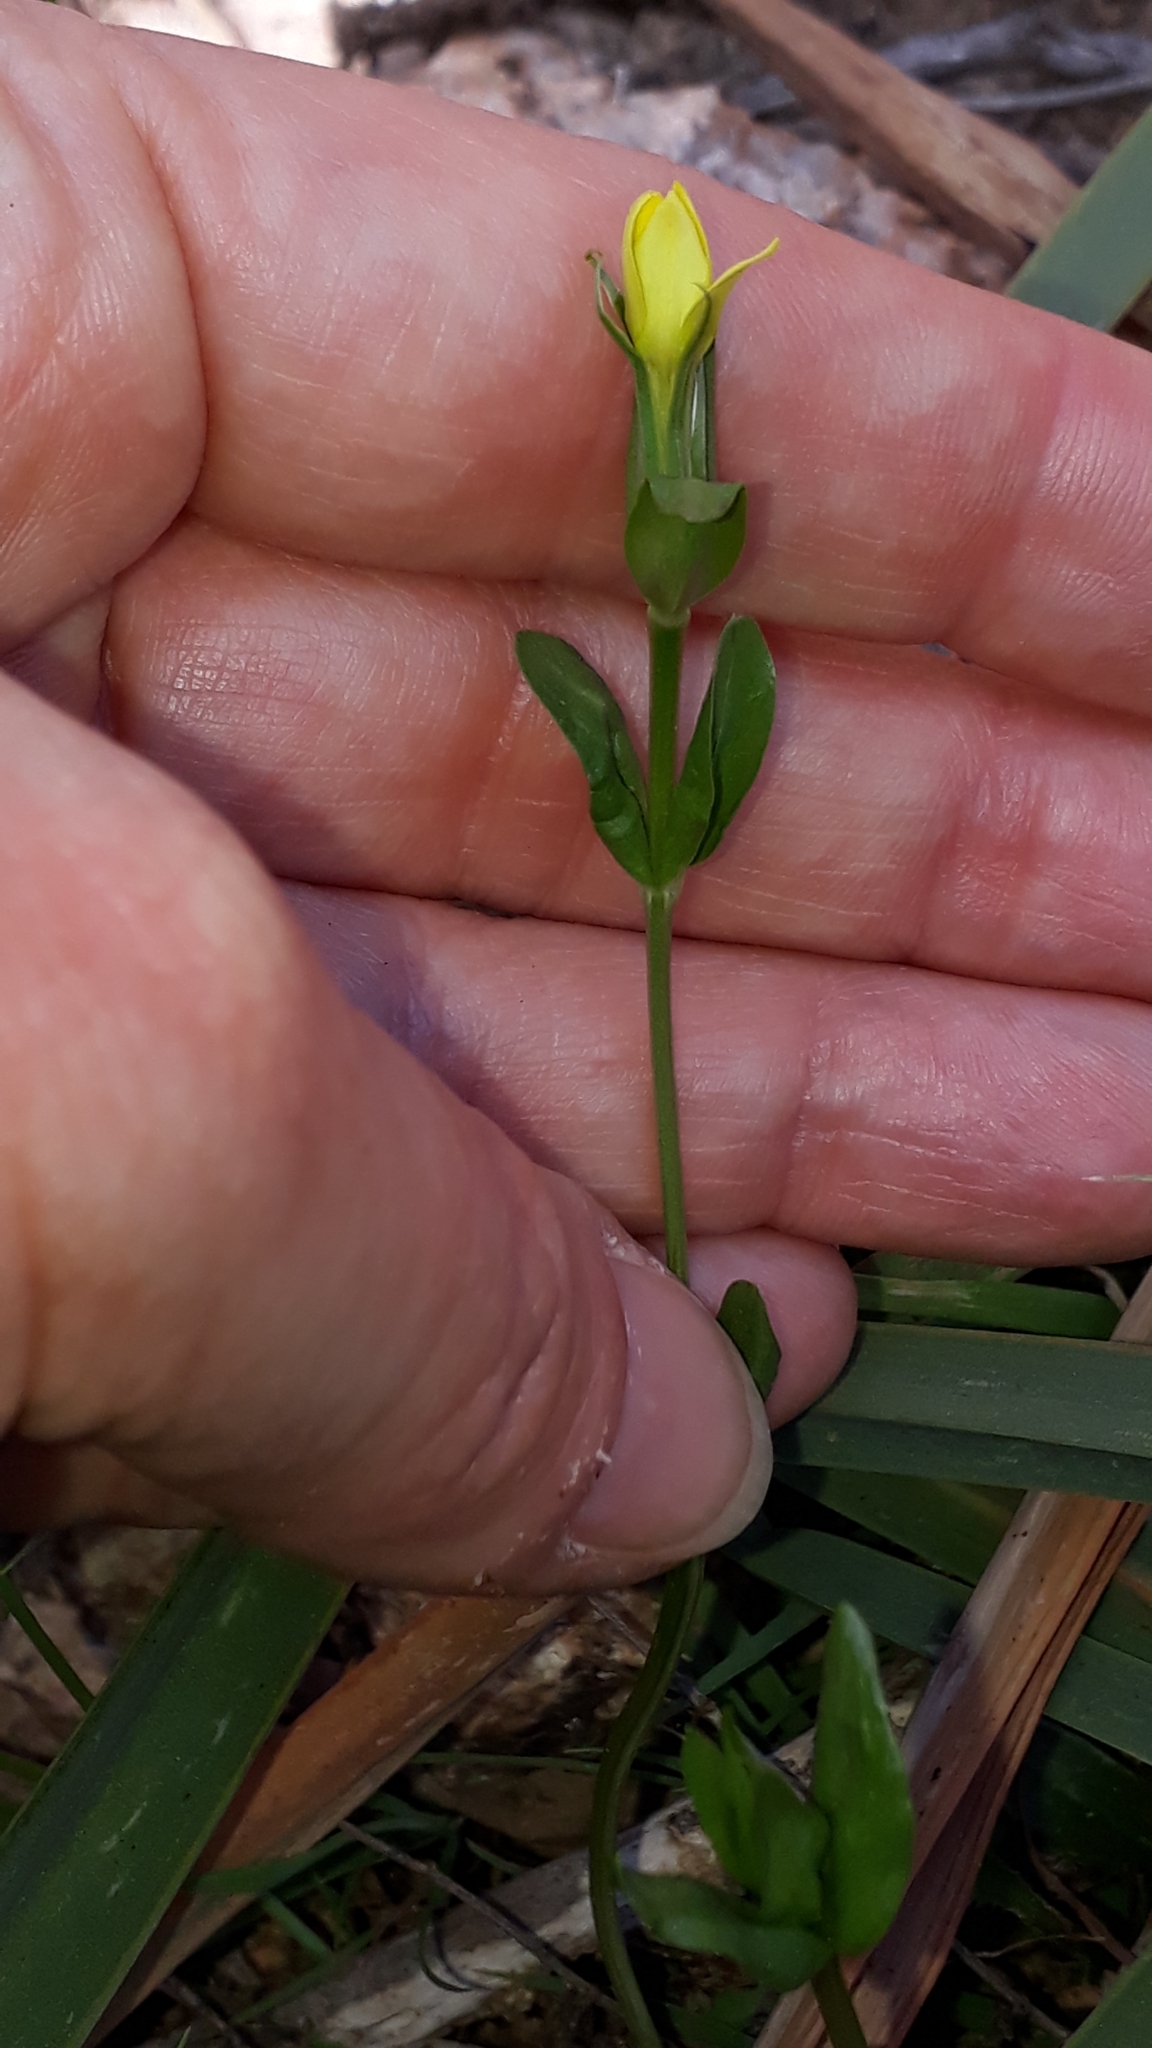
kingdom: Plantae
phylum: Tracheophyta
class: Magnoliopsida
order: Gentianales
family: Gentianaceae
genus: Centaurium
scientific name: Centaurium maritimum
